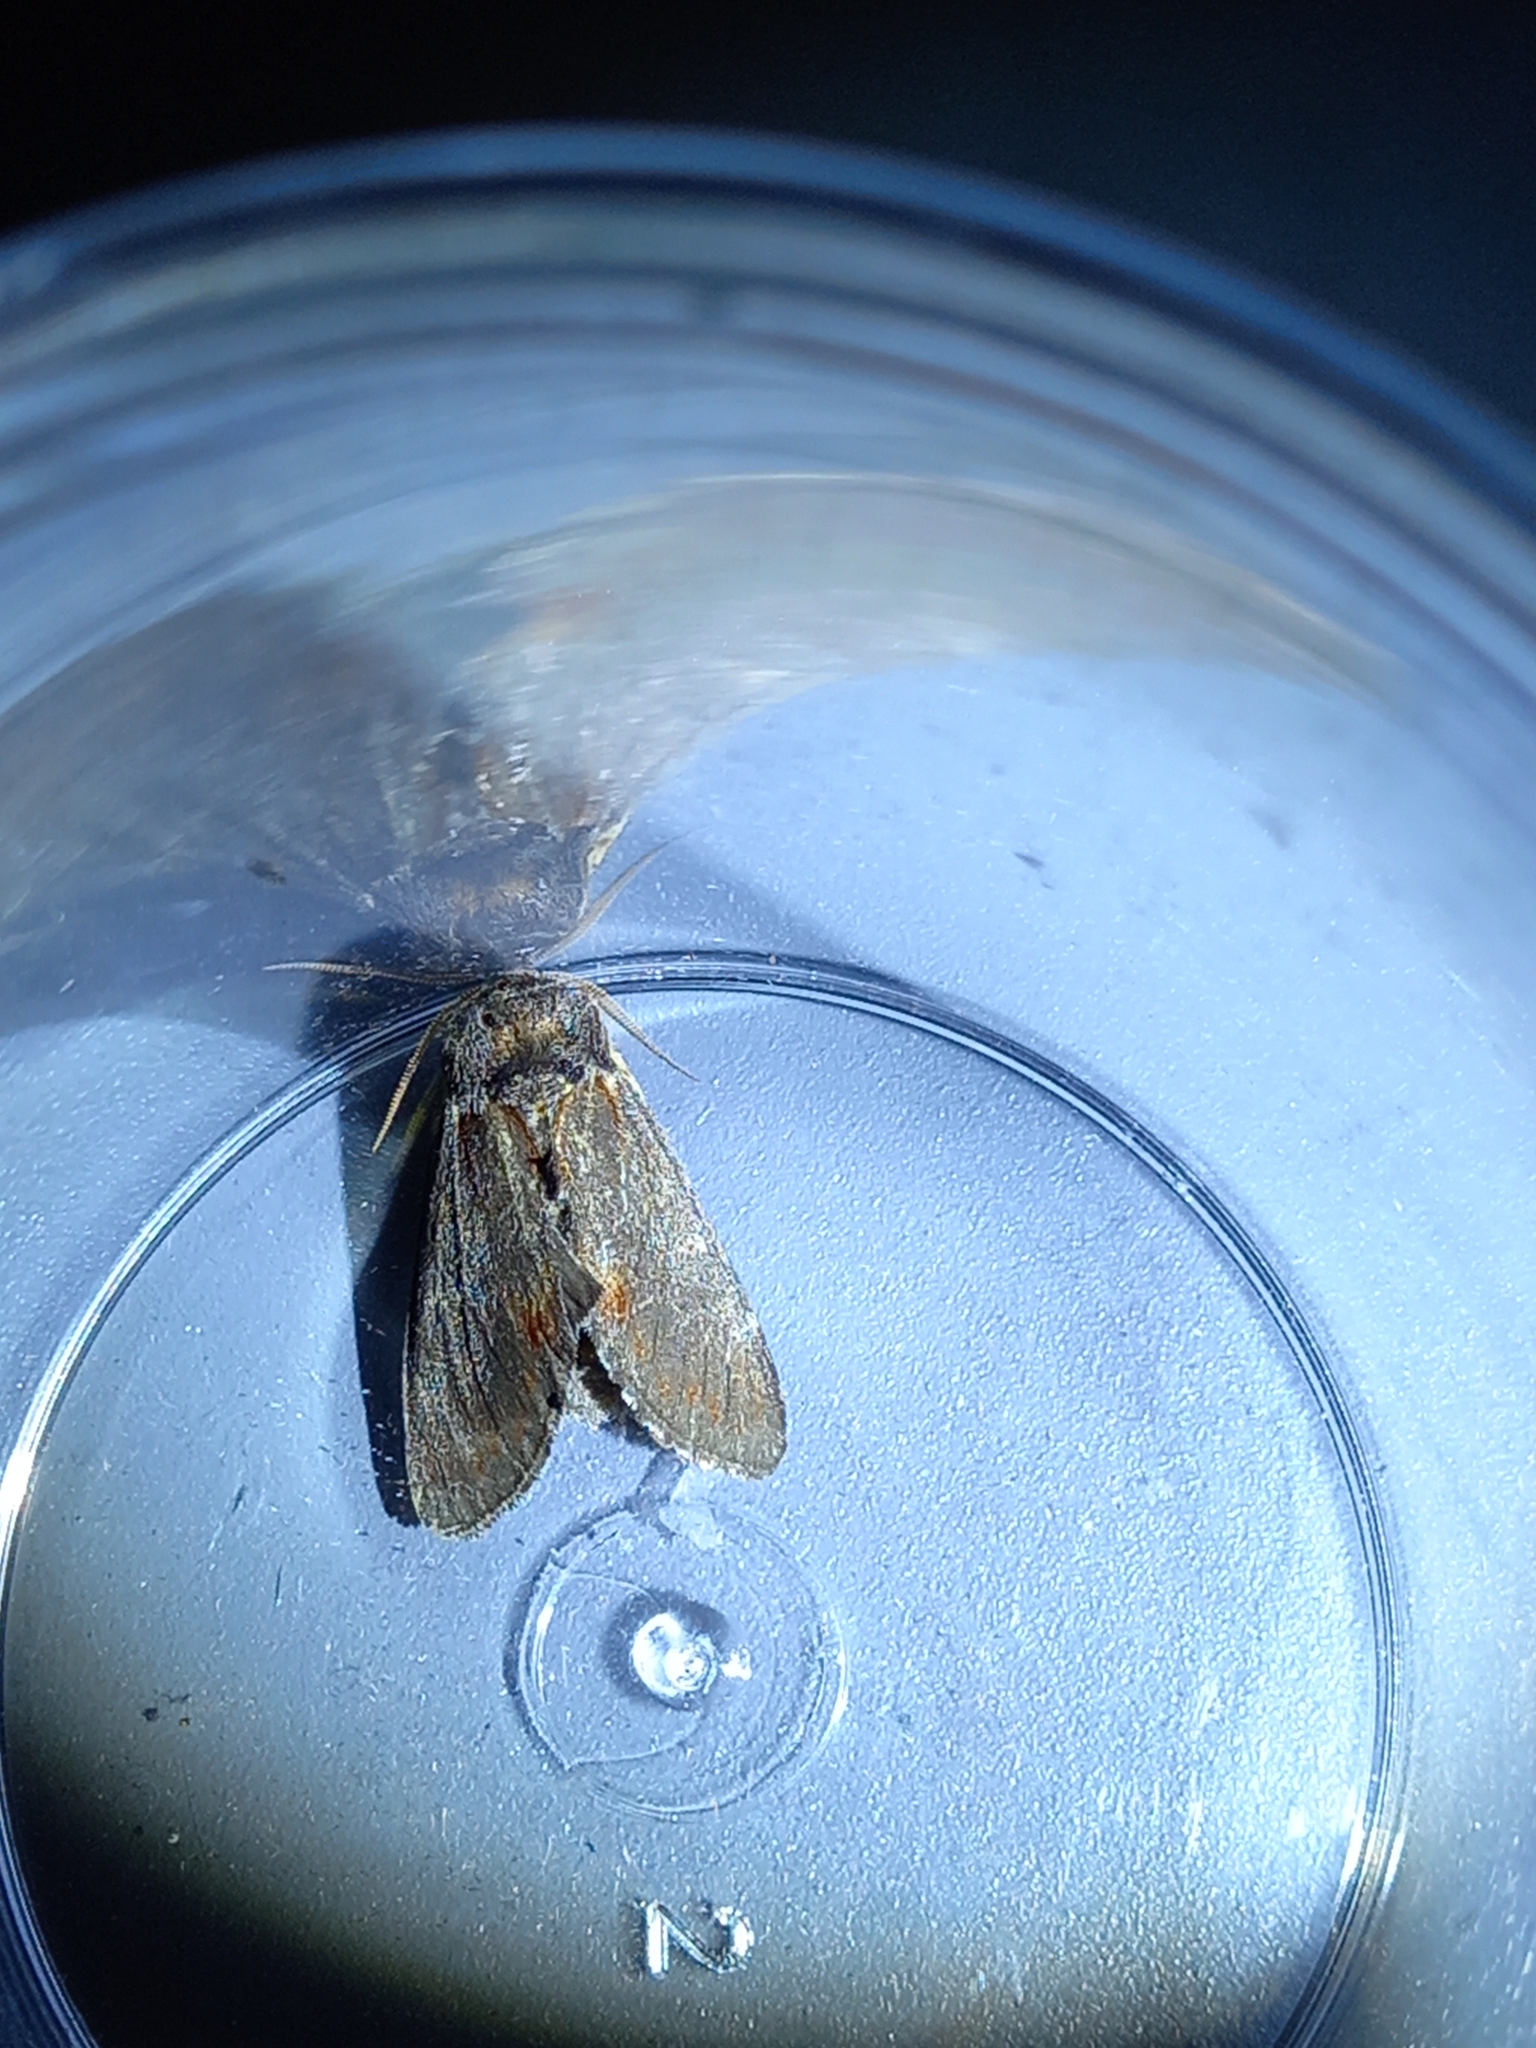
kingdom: Animalia
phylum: Arthropoda
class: Insecta
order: Lepidoptera
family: Notodontidae
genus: Notodonta
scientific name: Notodonta dromedarius
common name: Iron prominent
